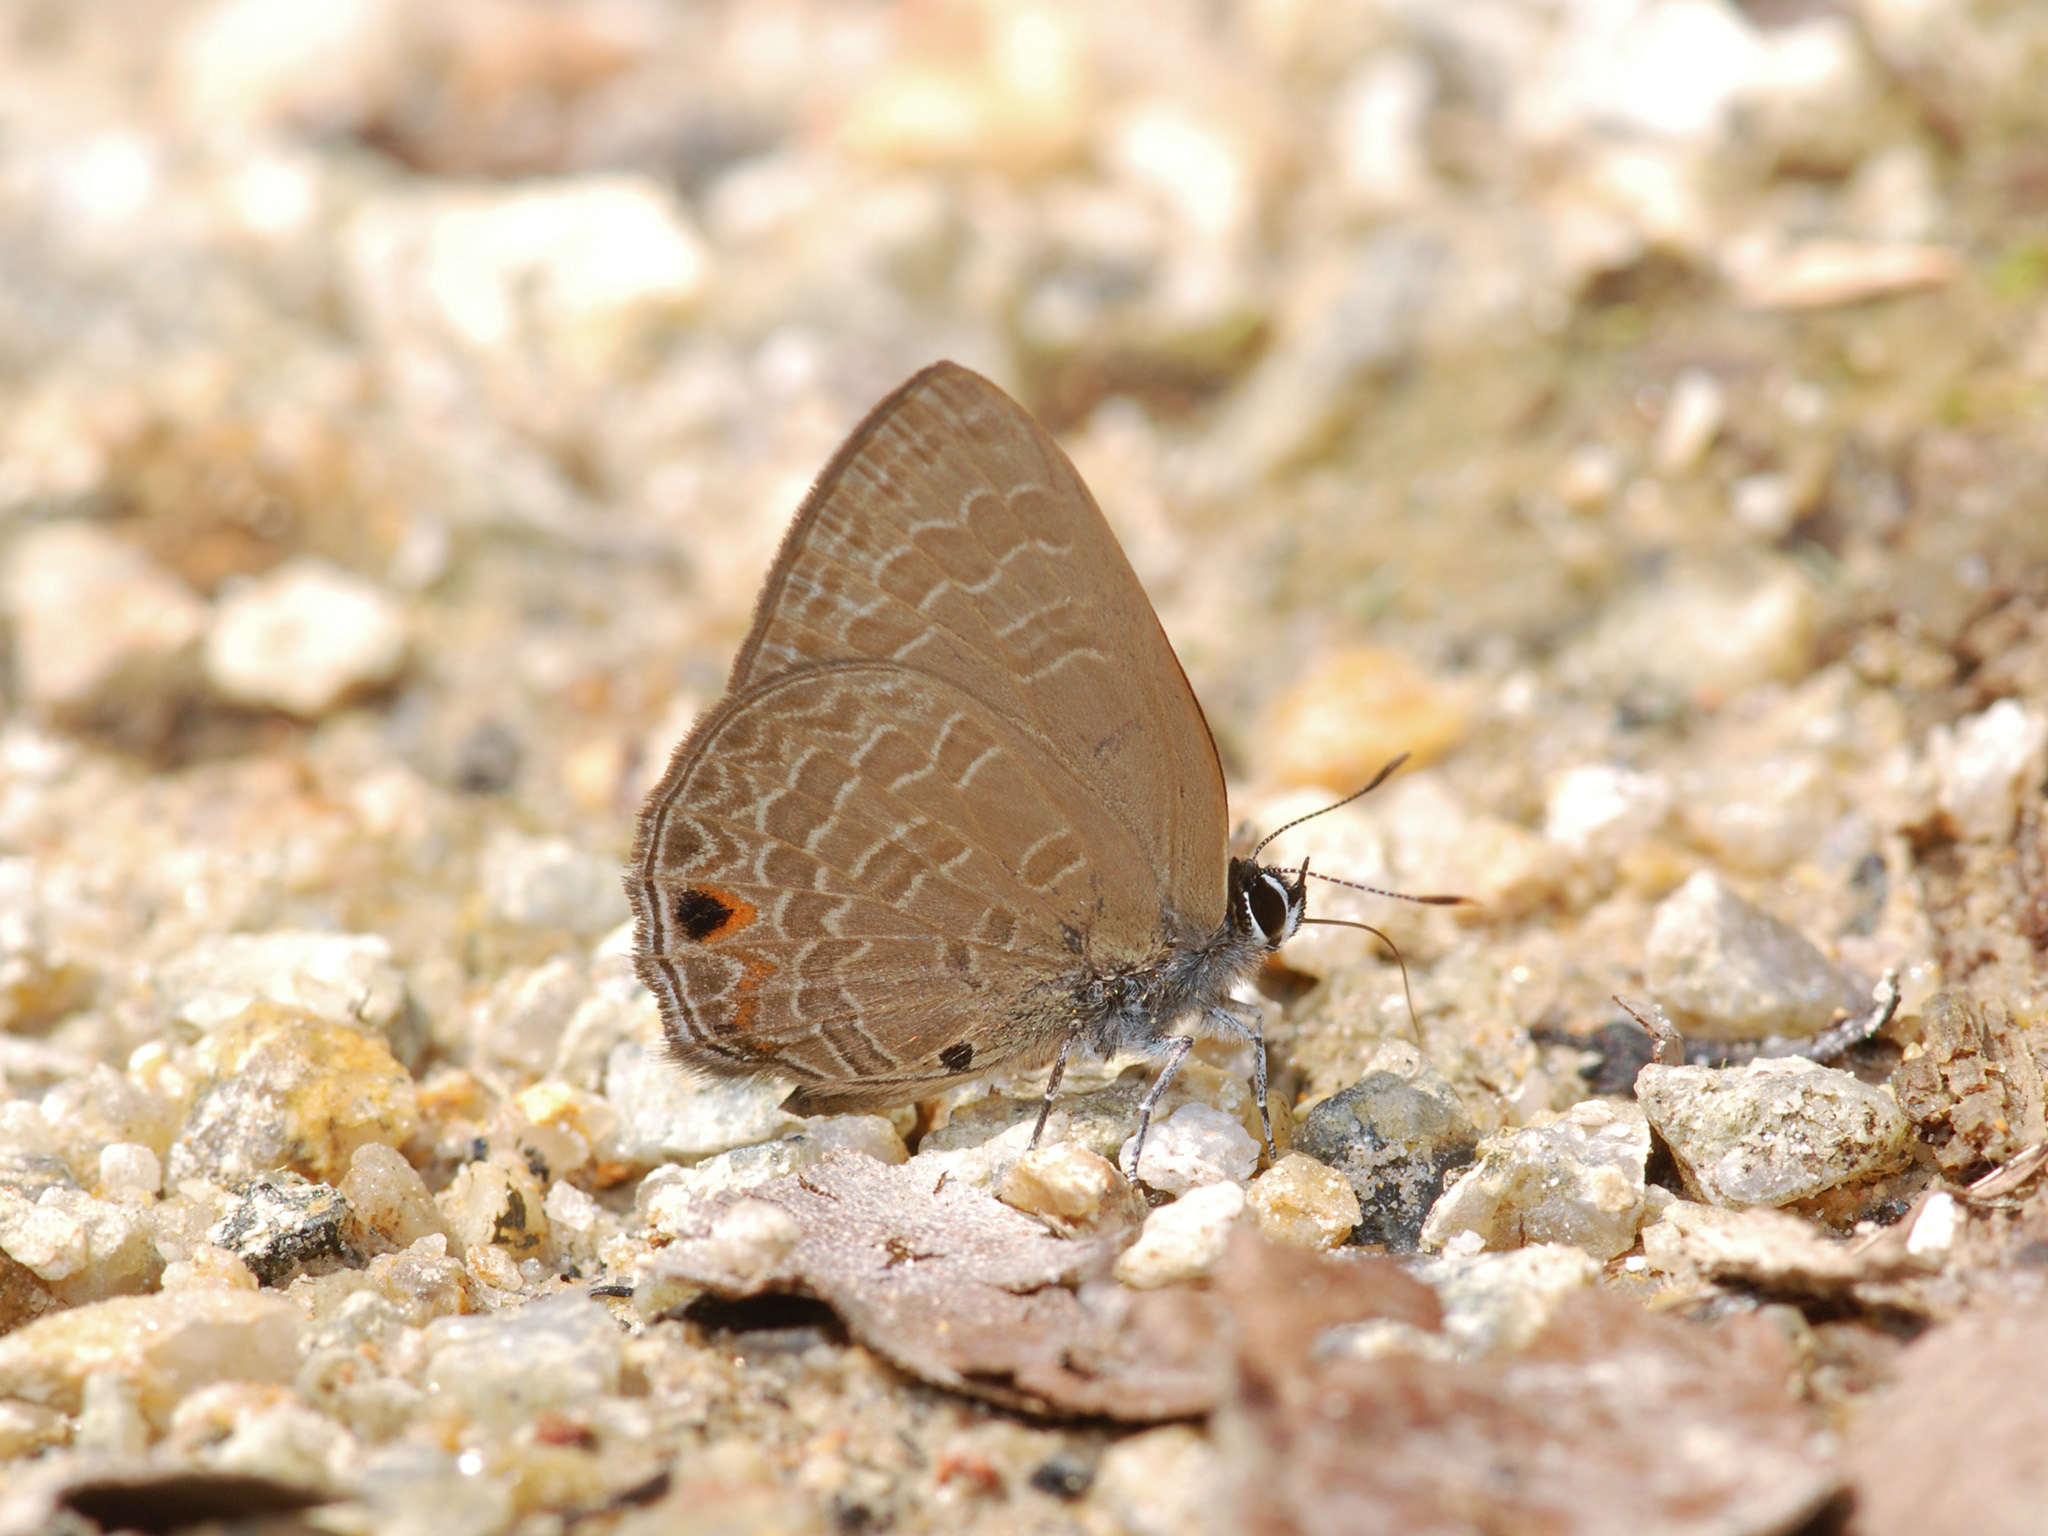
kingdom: Animalia
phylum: Arthropoda
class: Insecta
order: Lepidoptera
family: Lycaenidae
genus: Anthene
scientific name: Anthene emolus
